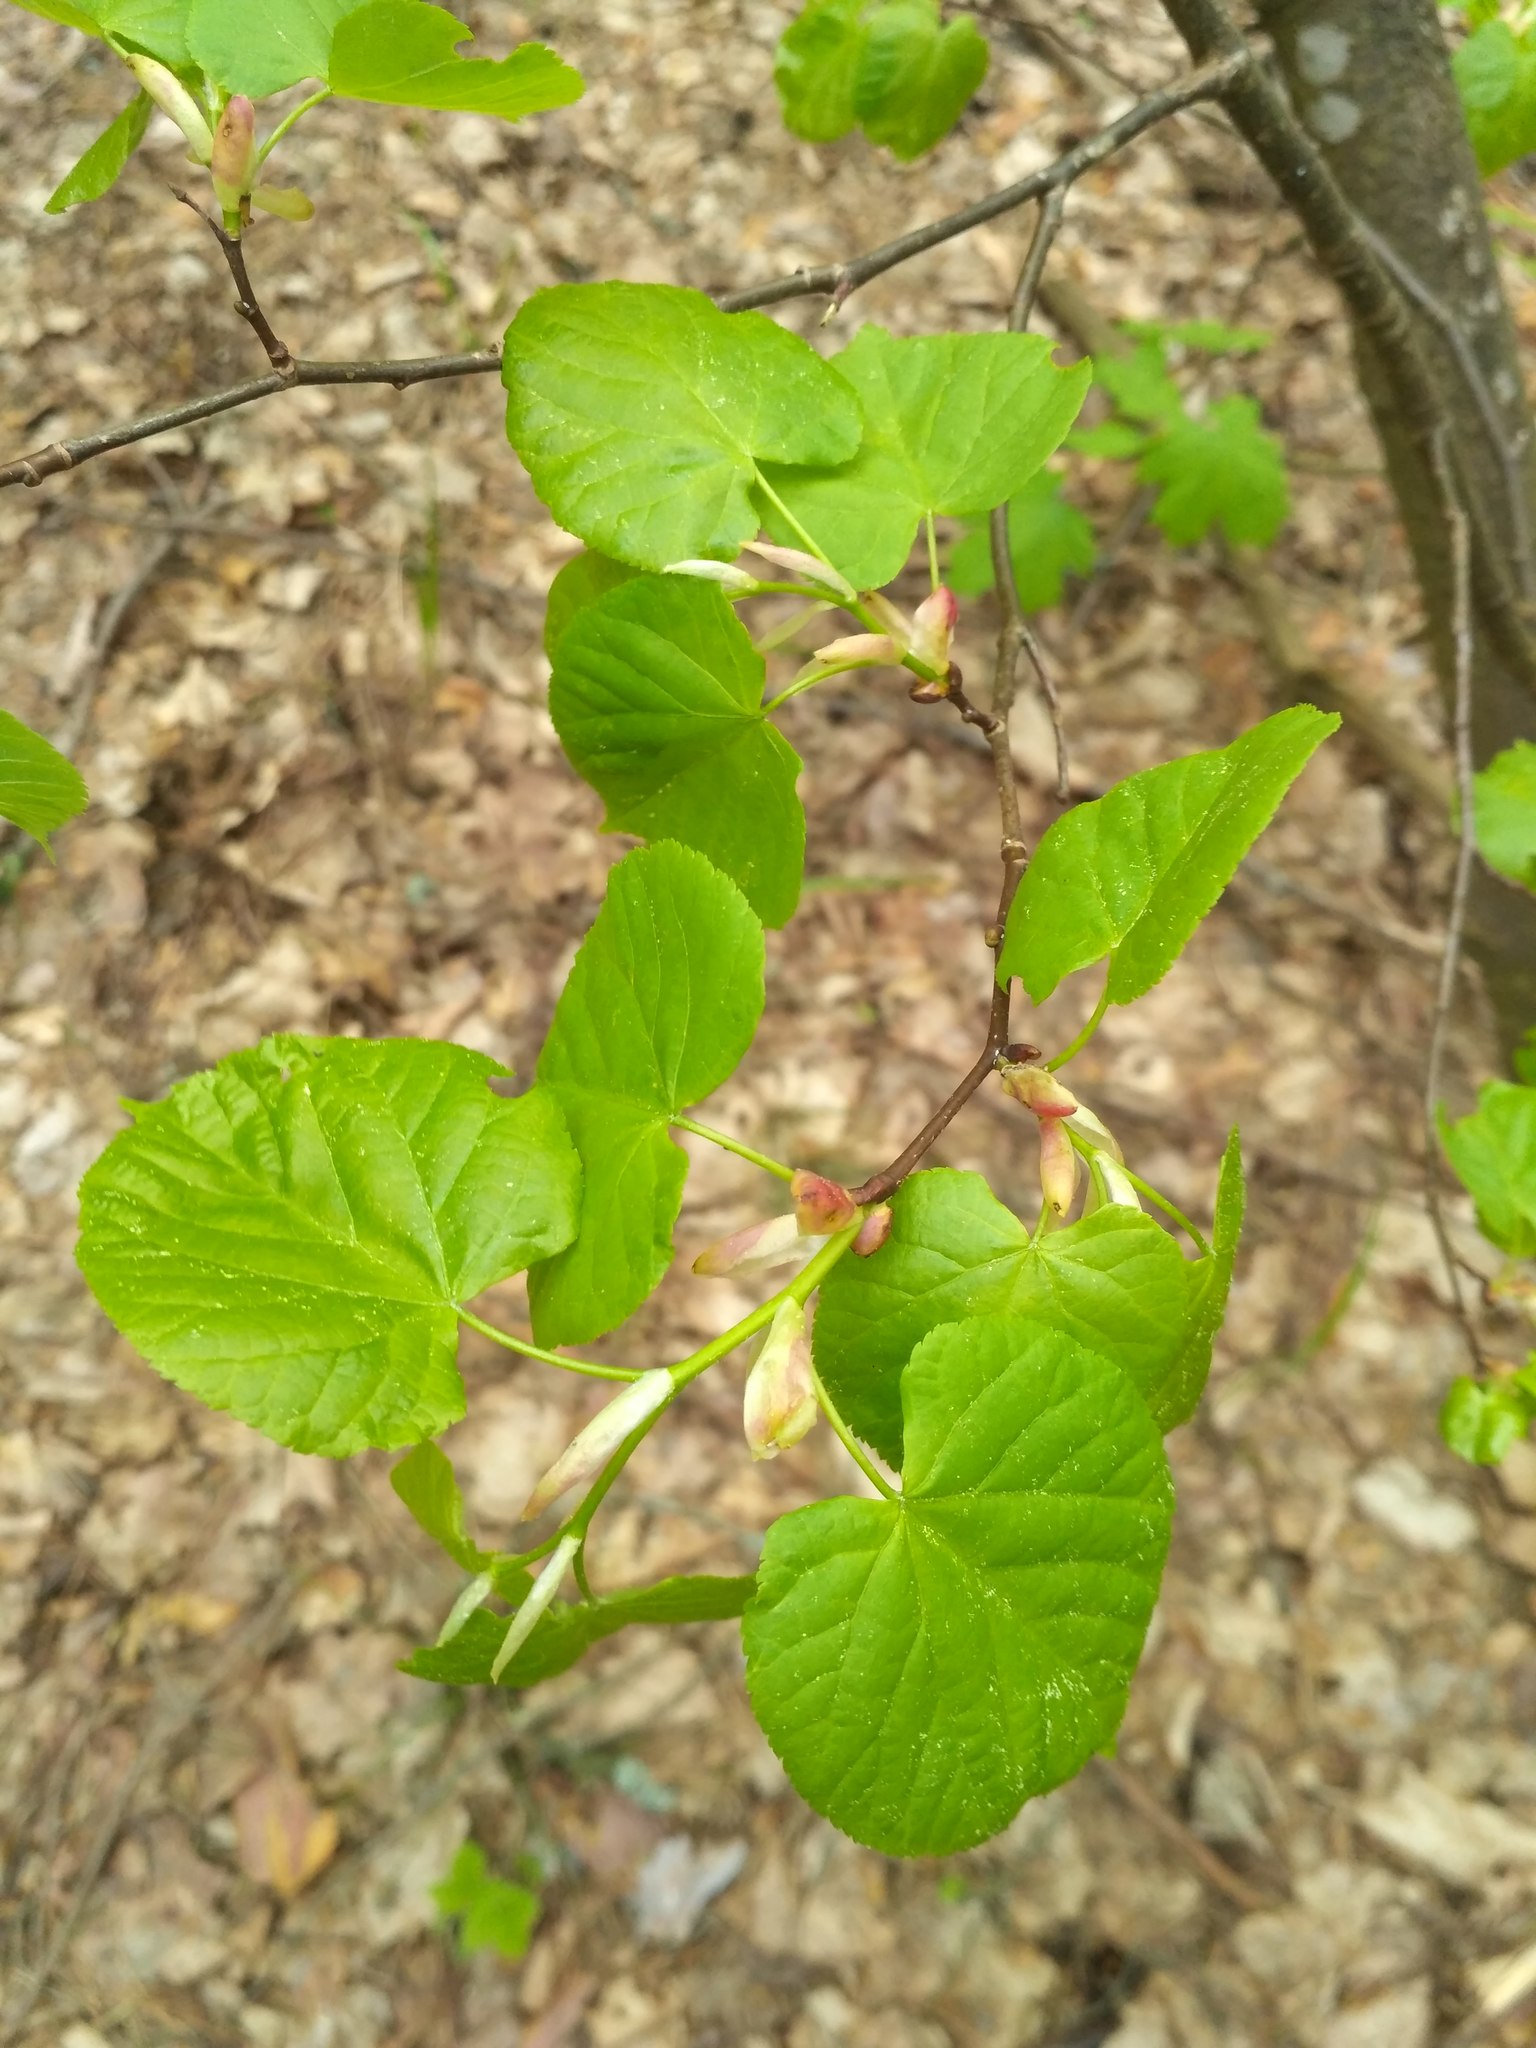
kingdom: Plantae
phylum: Tracheophyta
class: Magnoliopsida
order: Malvales
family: Malvaceae
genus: Tilia
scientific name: Tilia cordata
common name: Small-leaved lime
